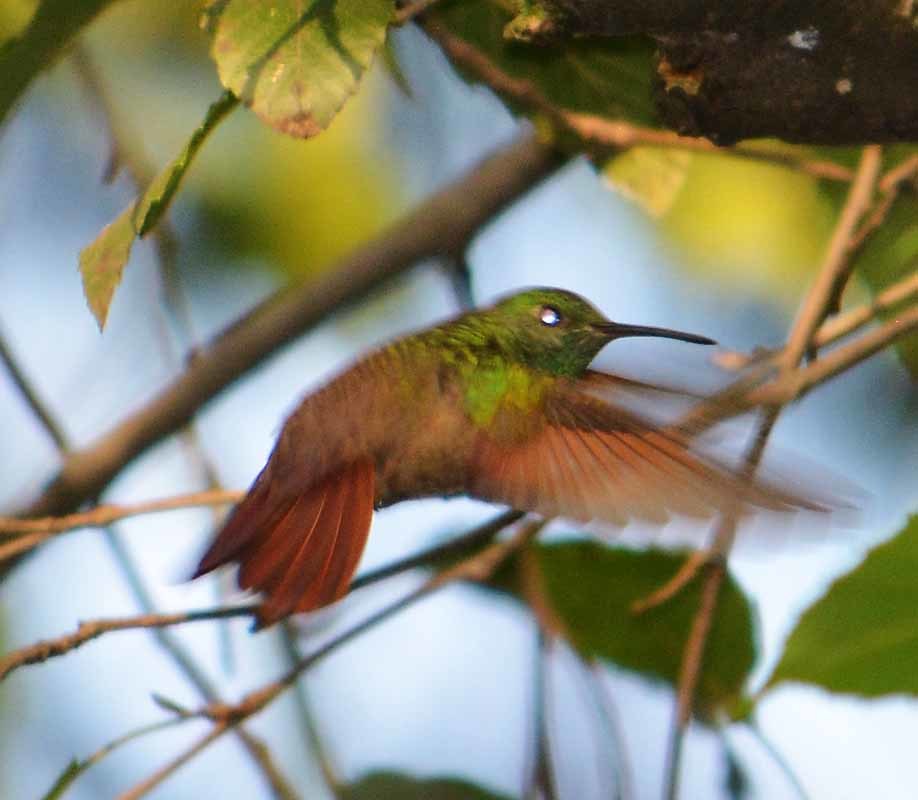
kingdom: Animalia
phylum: Chordata
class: Aves
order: Apodiformes
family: Trochilidae
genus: Saucerottia
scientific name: Saucerottia beryllina
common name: Berylline hummingbird
